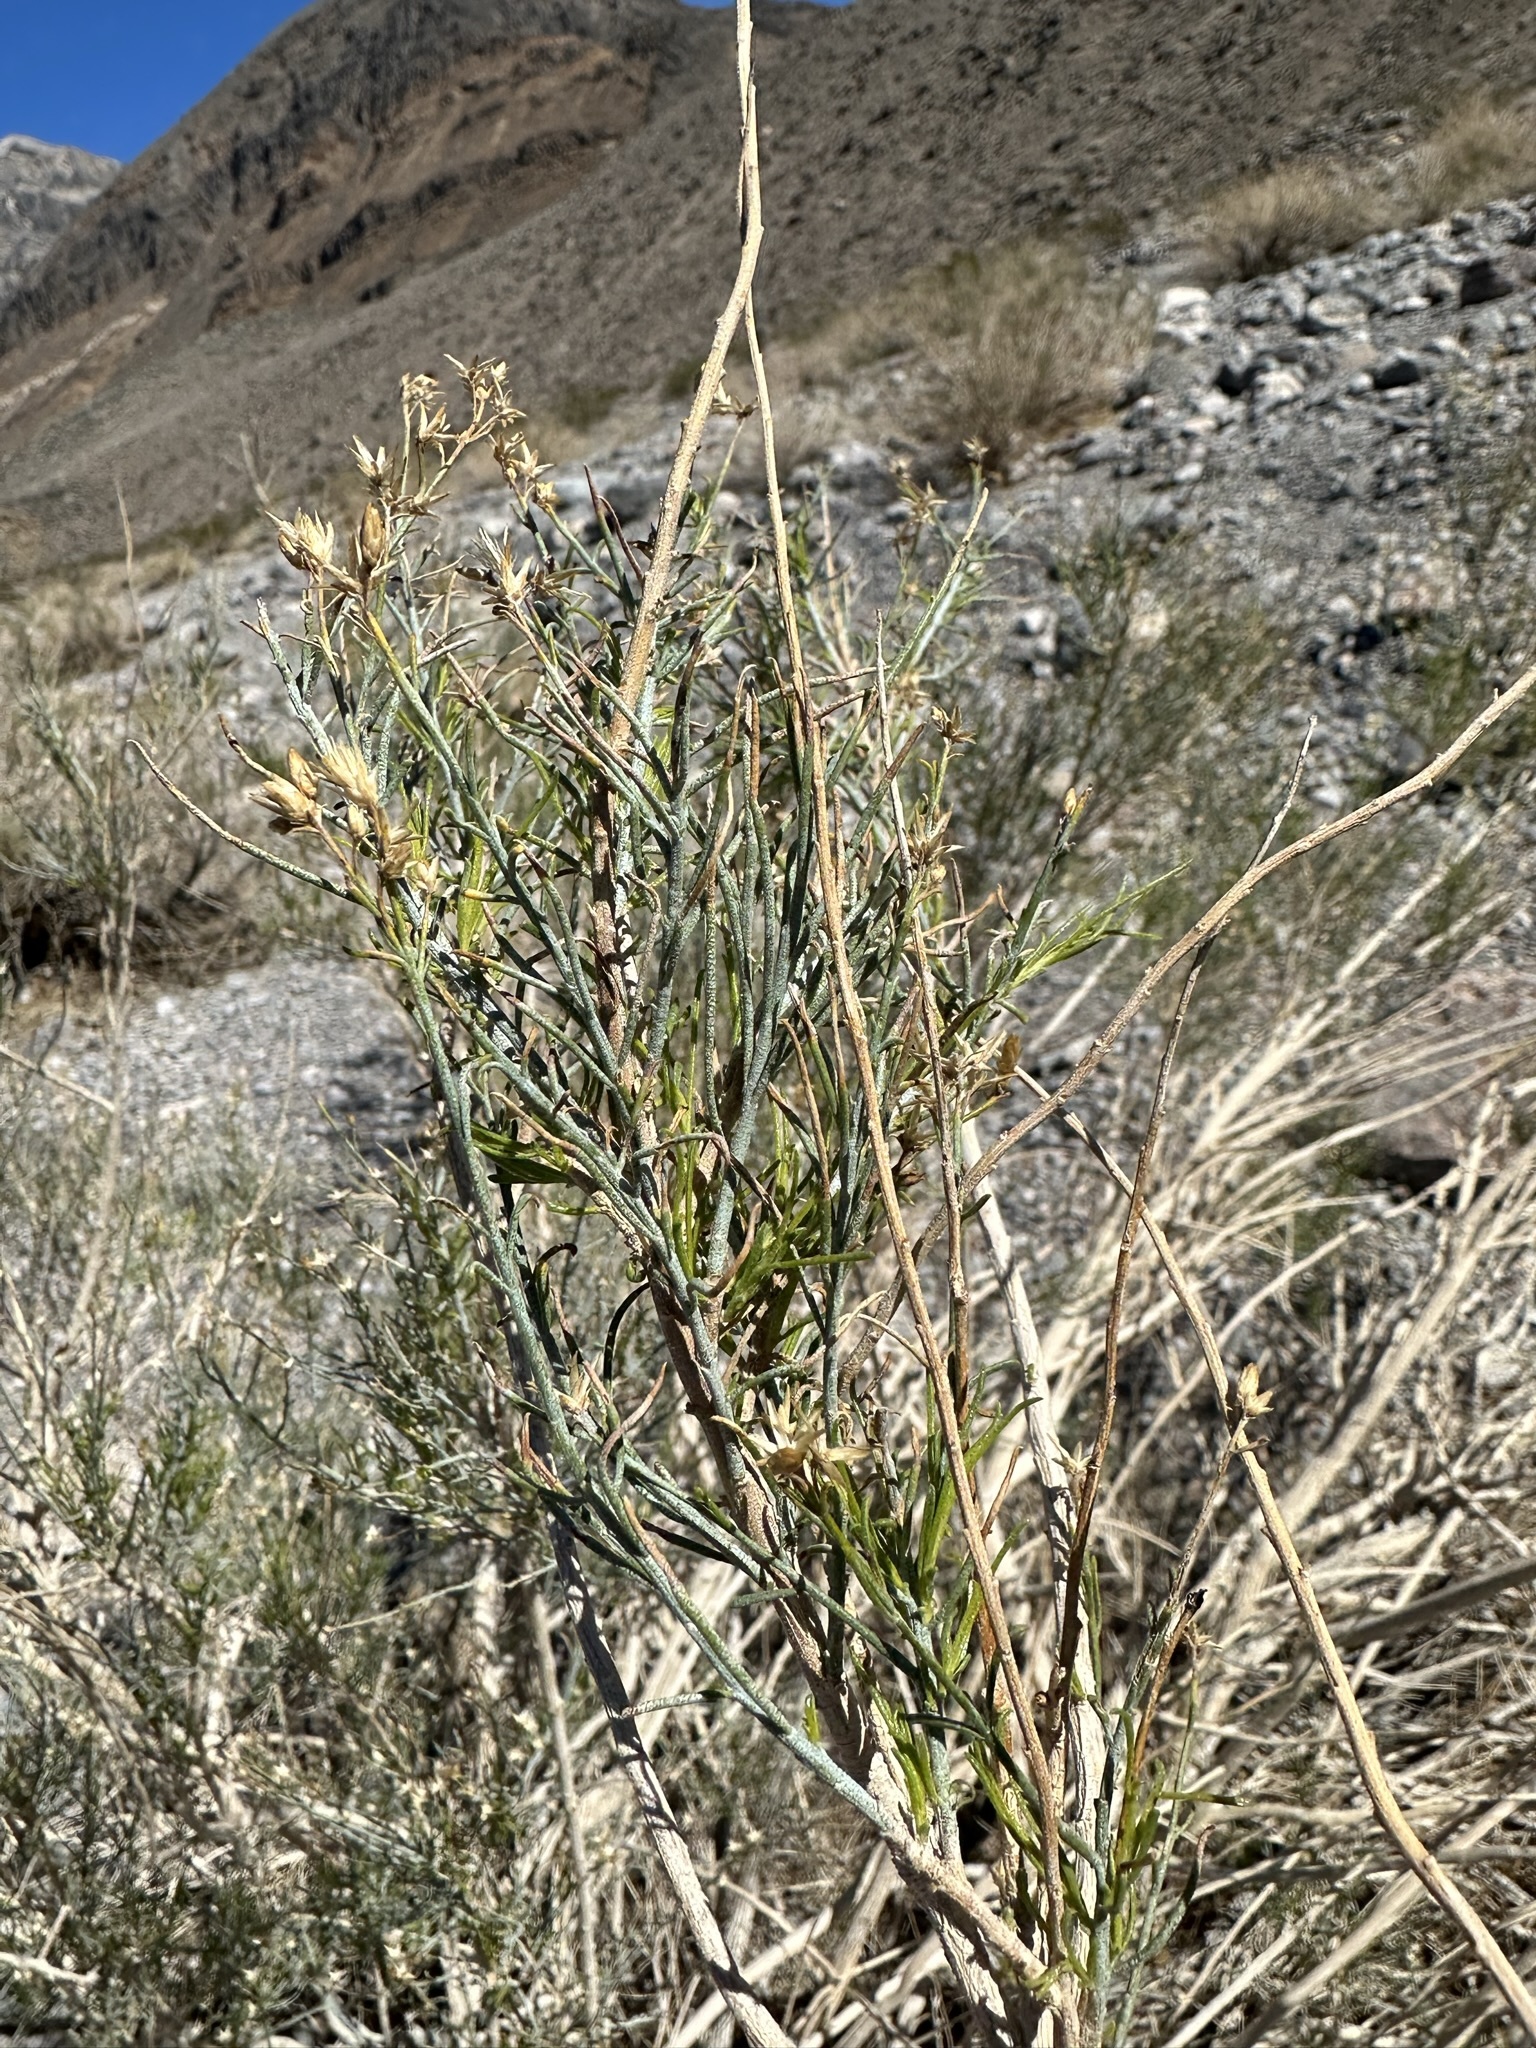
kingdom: Plantae
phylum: Tracheophyta
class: Magnoliopsida
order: Asterales
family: Asteraceae
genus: Ericameria
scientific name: Ericameria paniculata
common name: Punctate rabbitbrush
